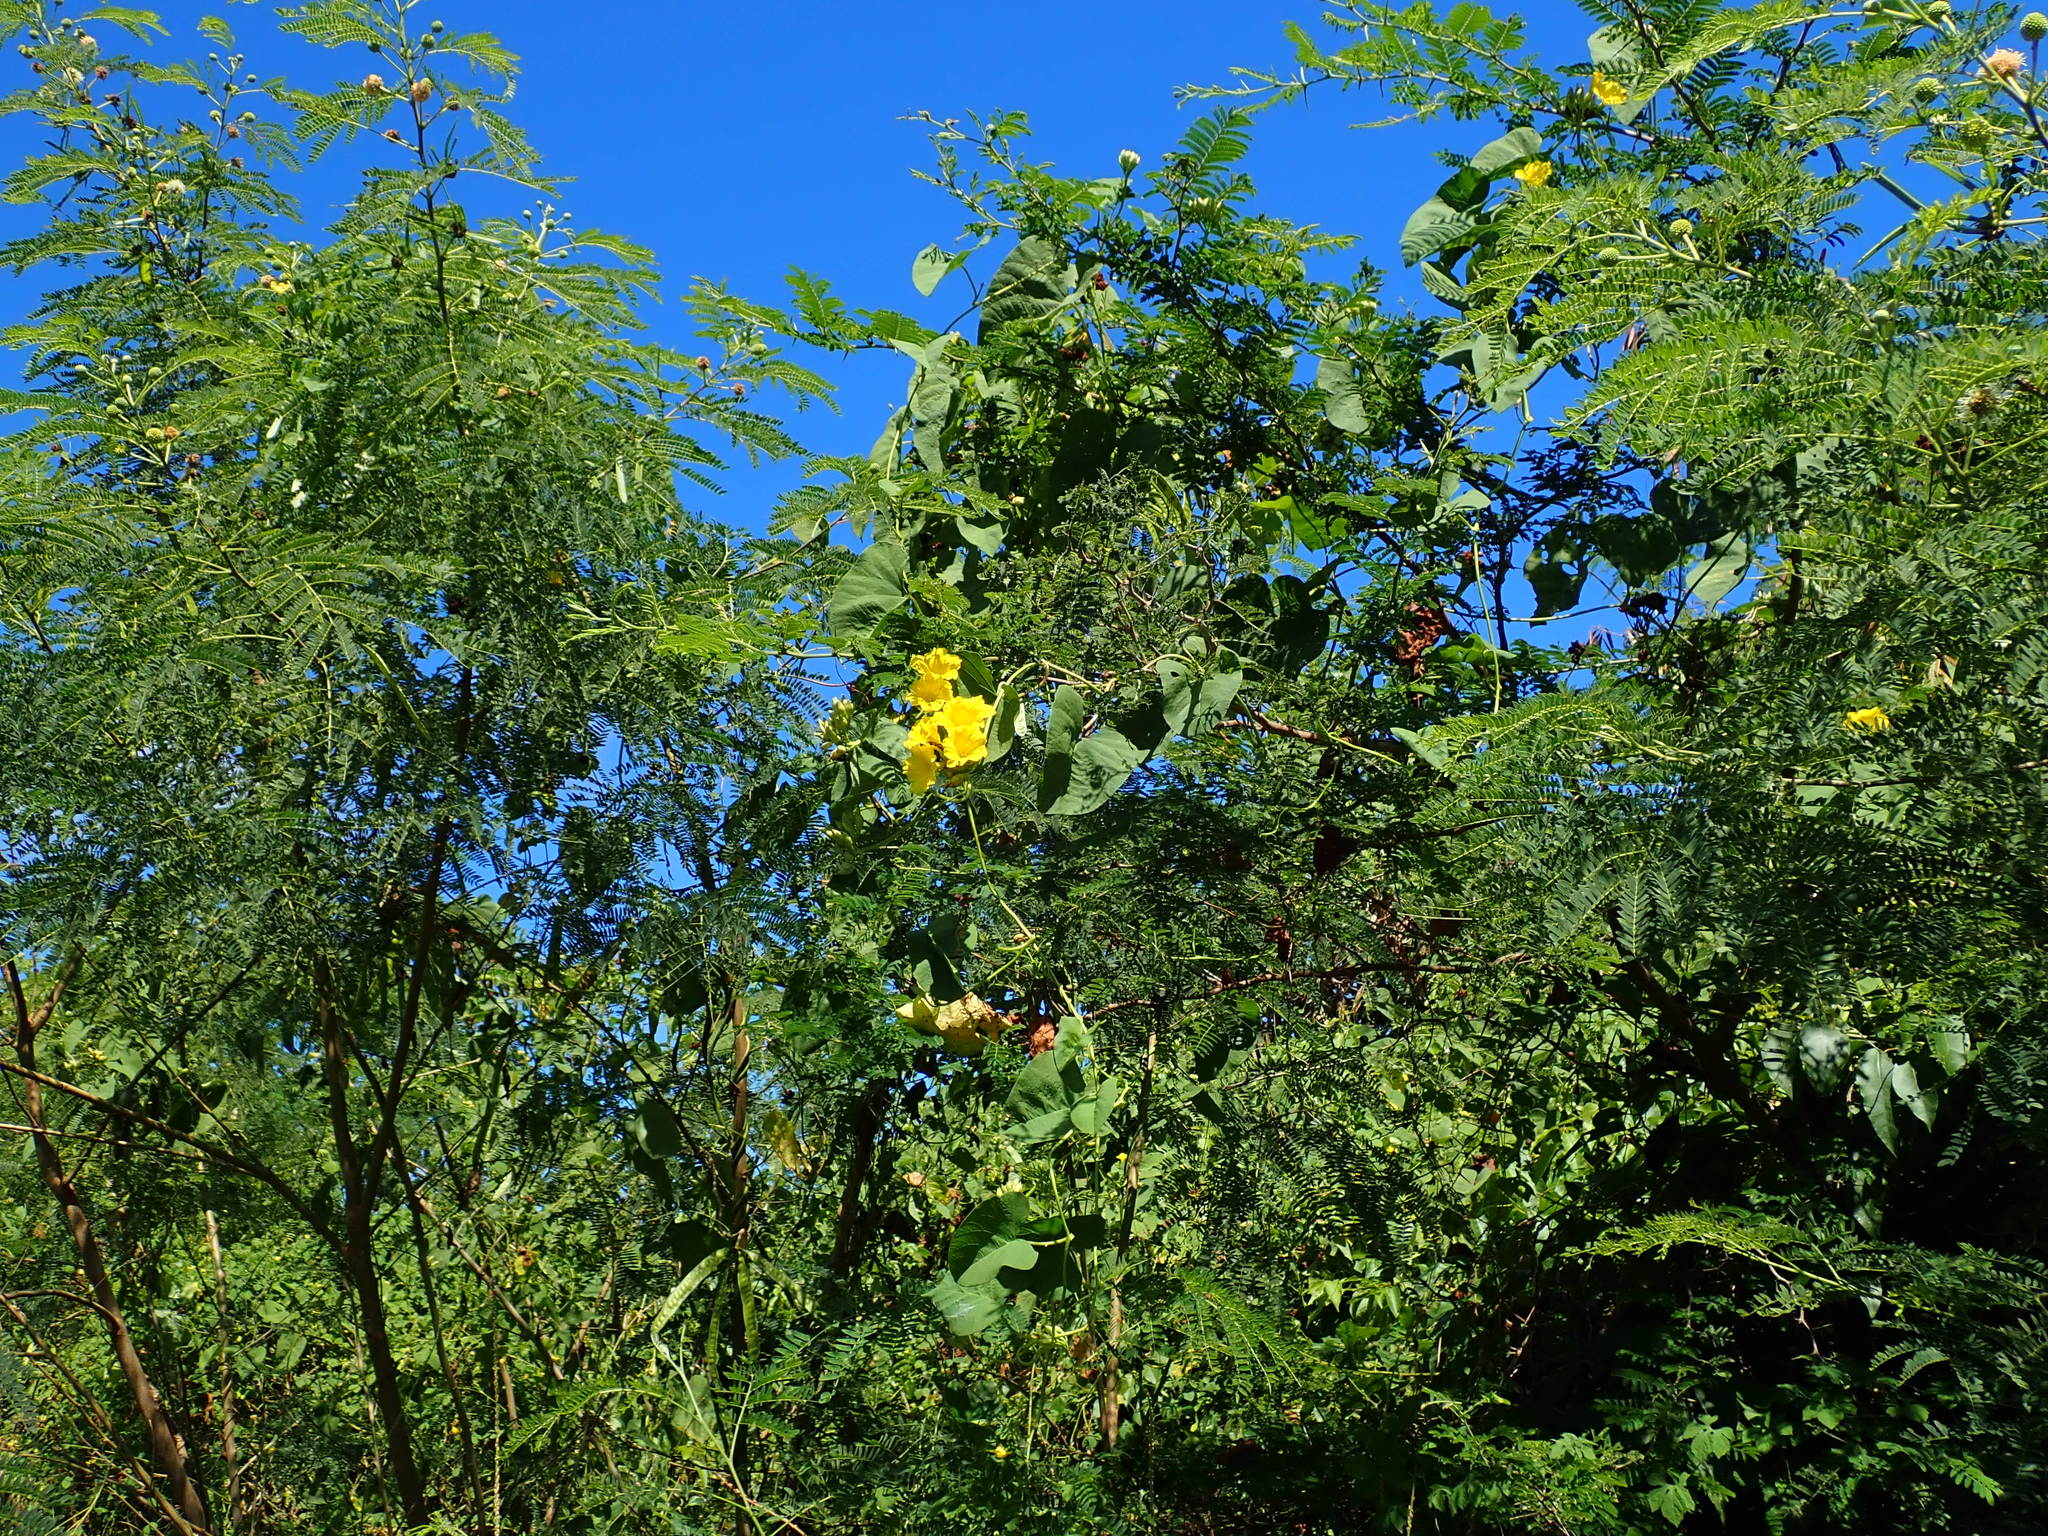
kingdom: Plantae
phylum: Tracheophyta
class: Magnoliopsida
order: Solanales
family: Convolvulaceae
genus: Camonea
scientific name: Camonea umbellata
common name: Hogvine
